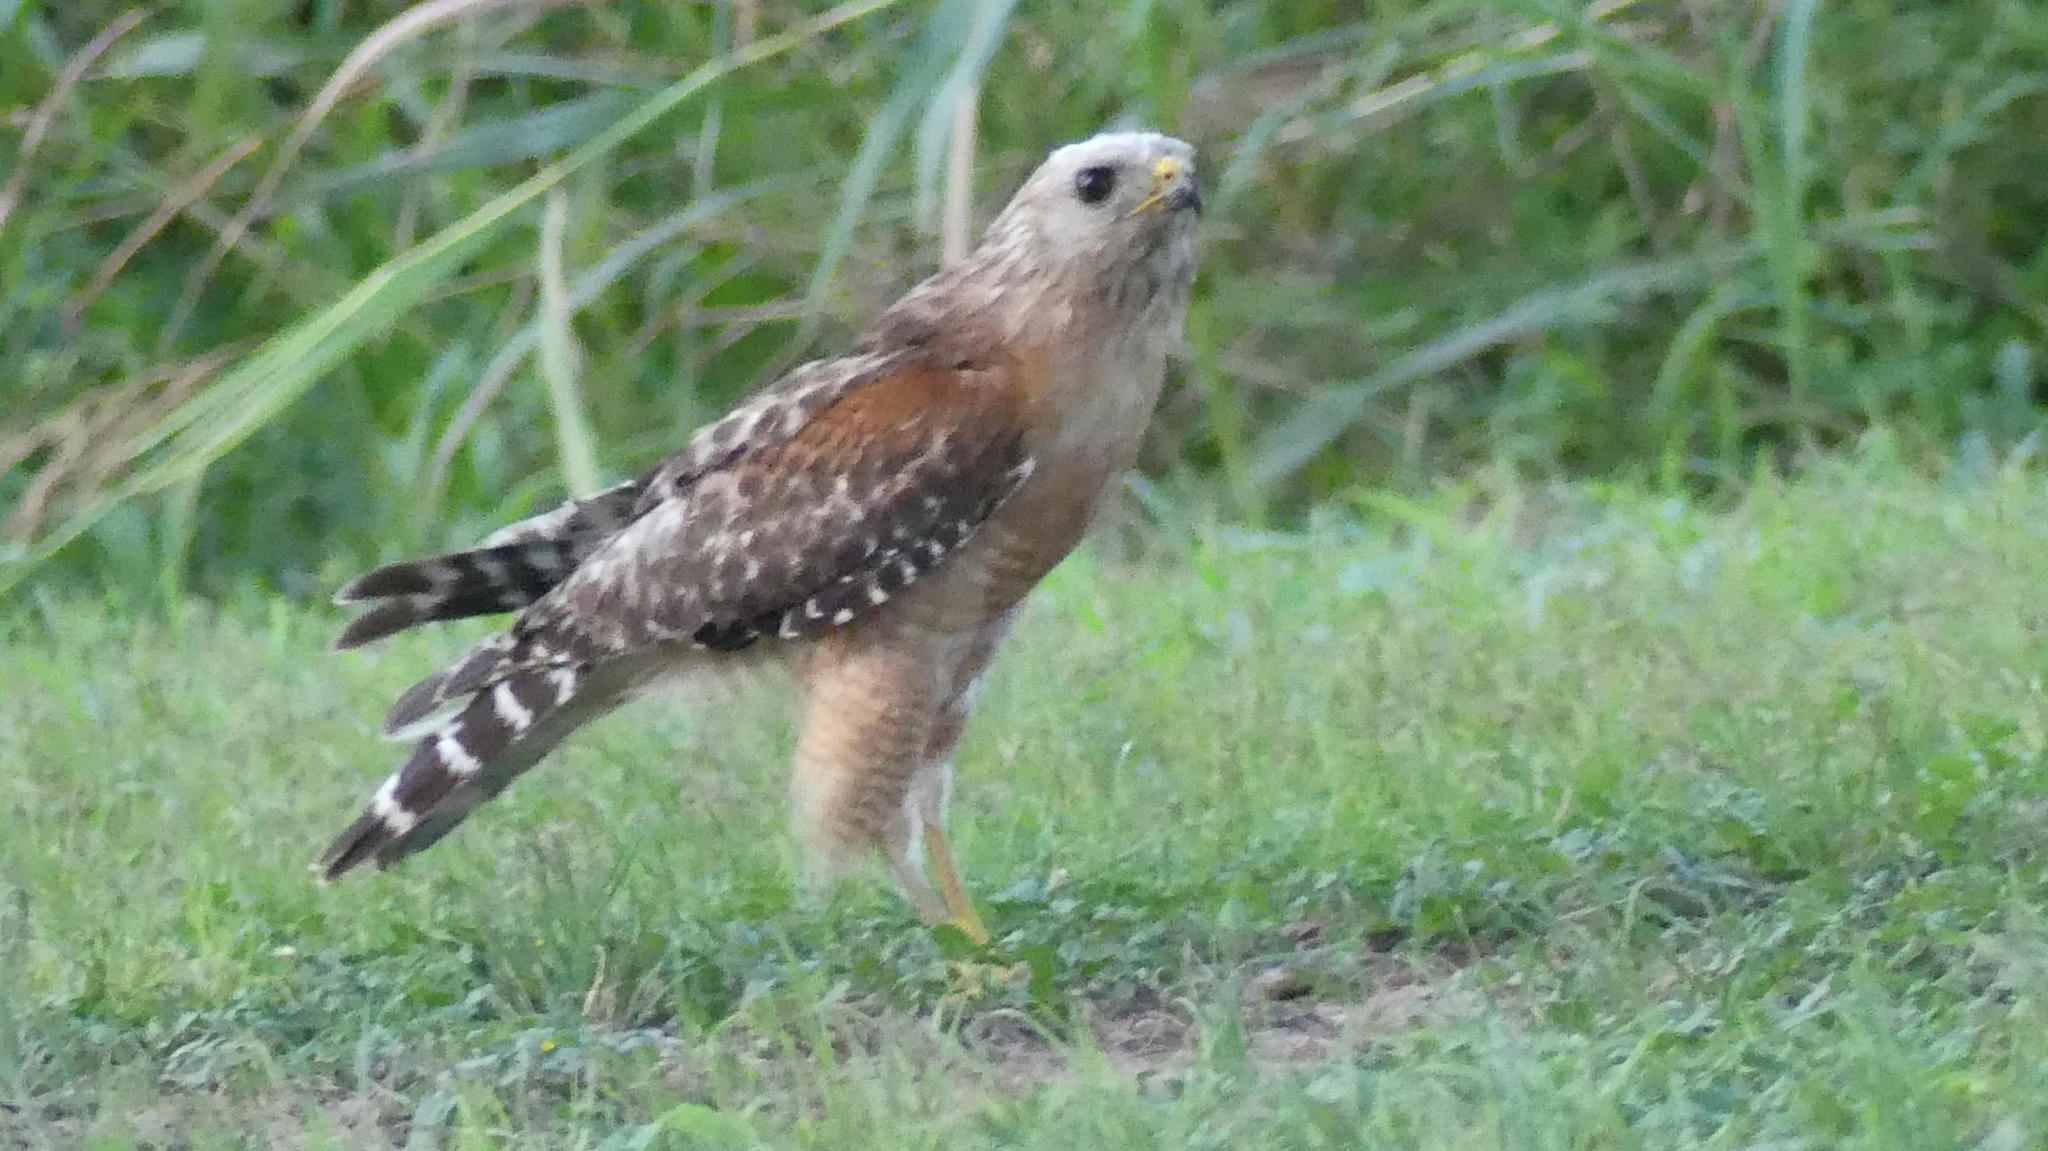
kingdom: Animalia
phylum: Chordata
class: Aves
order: Accipitriformes
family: Accipitridae
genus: Buteo
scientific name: Buteo lineatus
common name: Red-shouldered hawk
